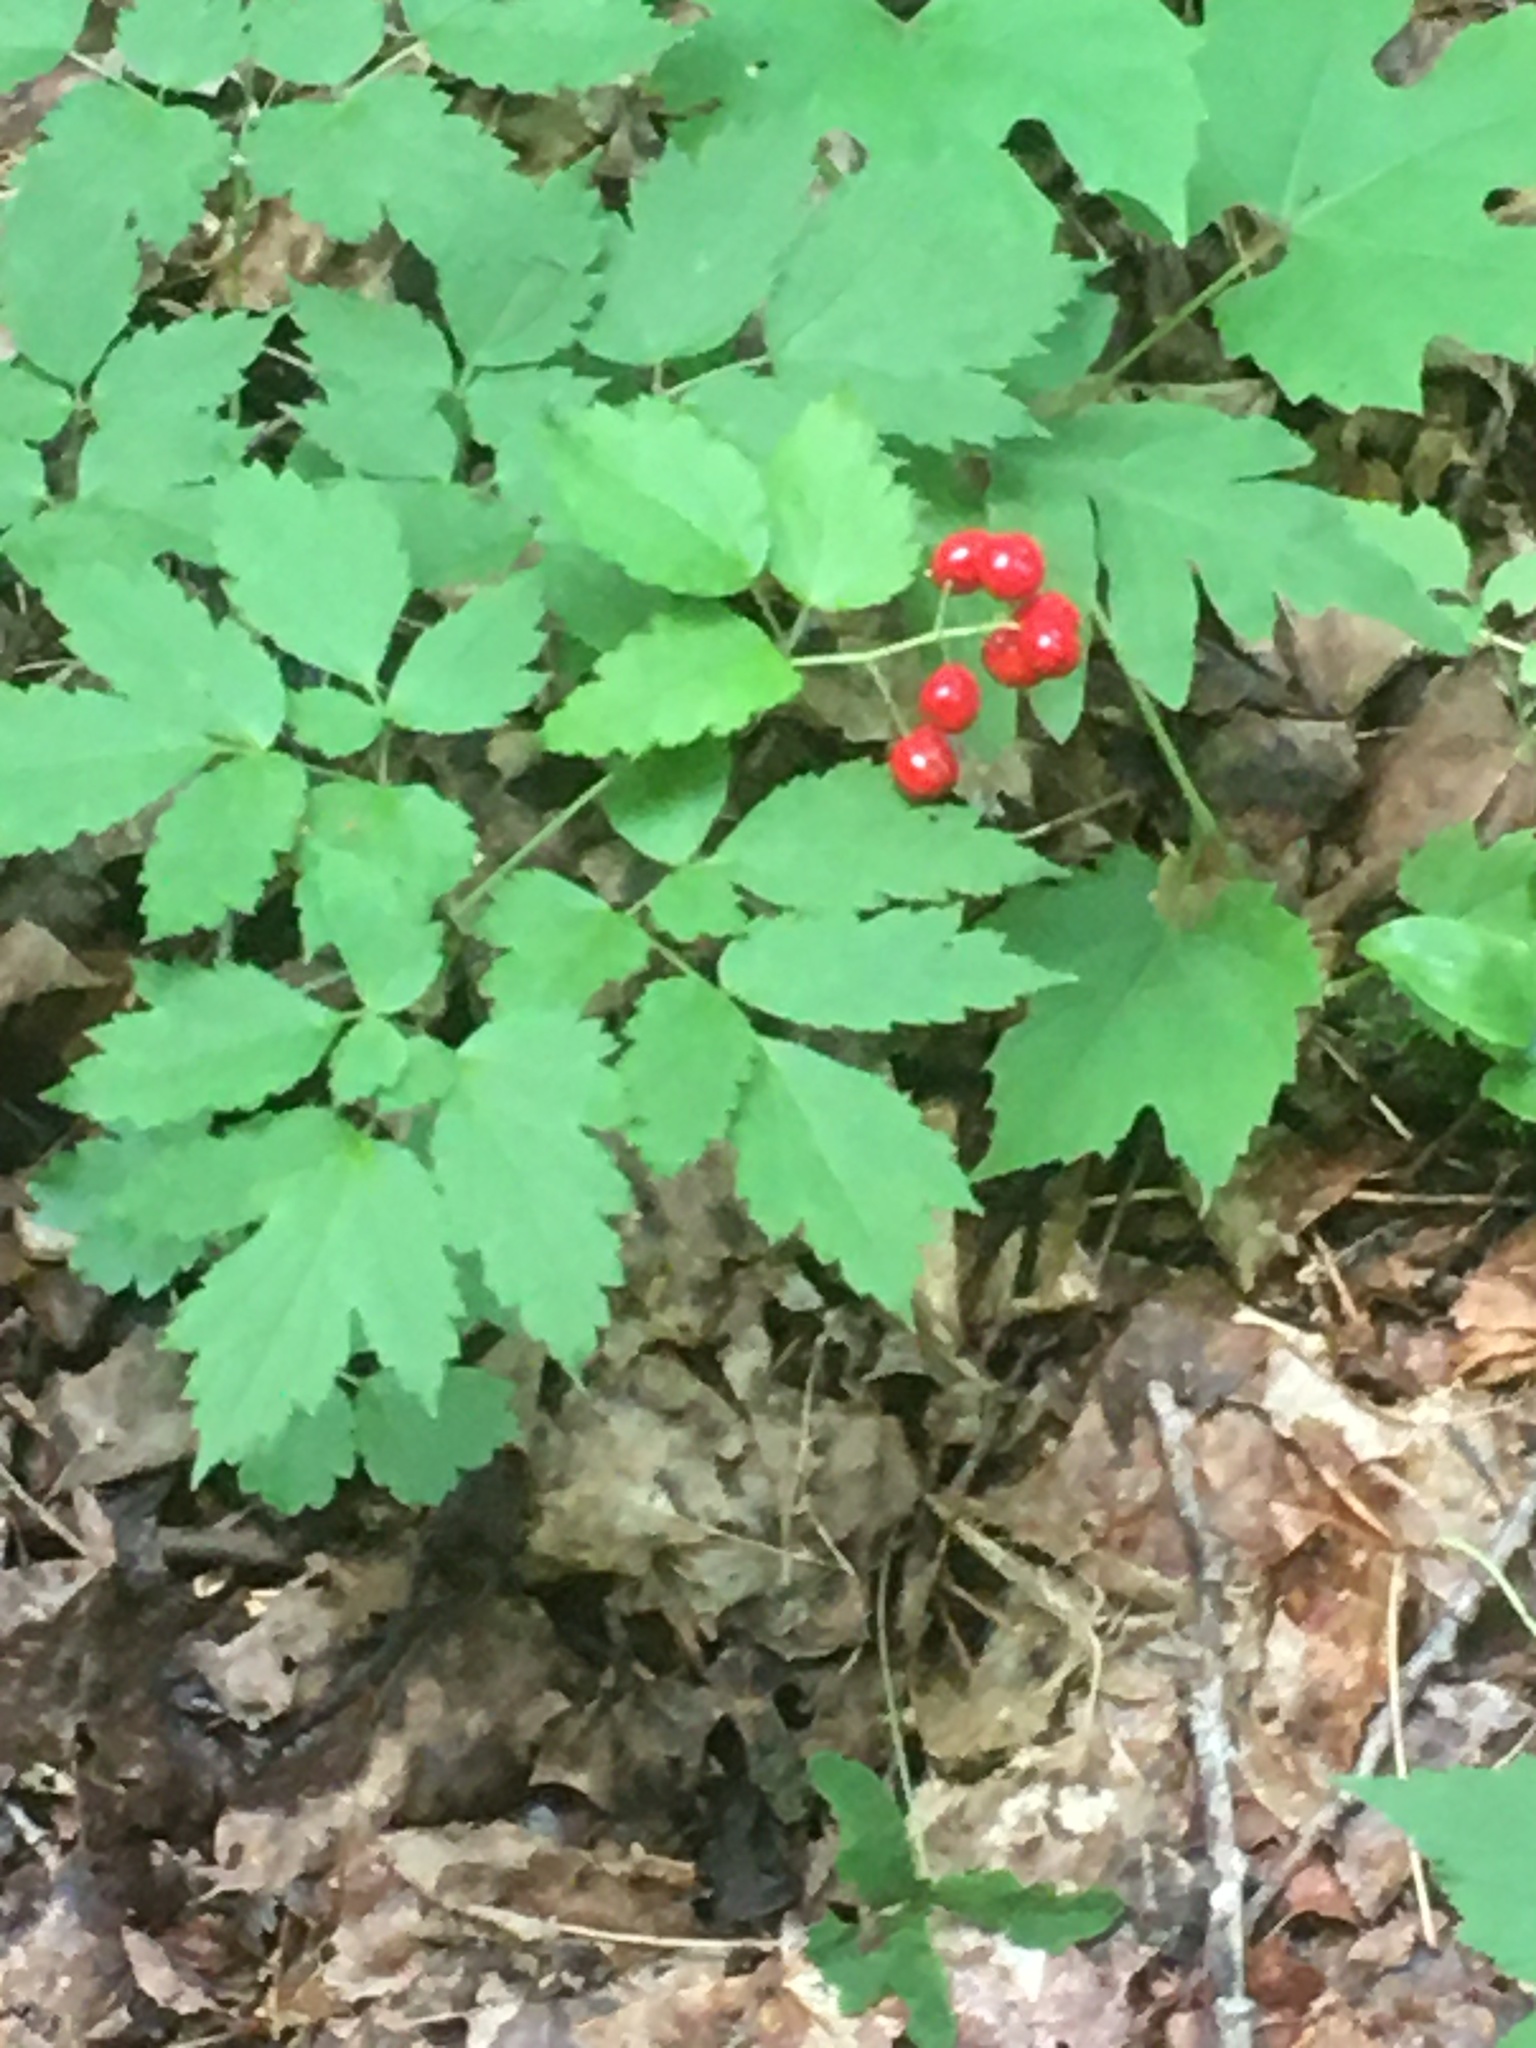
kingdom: Plantae
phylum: Tracheophyta
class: Magnoliopsida
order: Ranunculales
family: Ranunculaceae
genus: Actaea
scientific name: Actaea rubra
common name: Red baneberry
